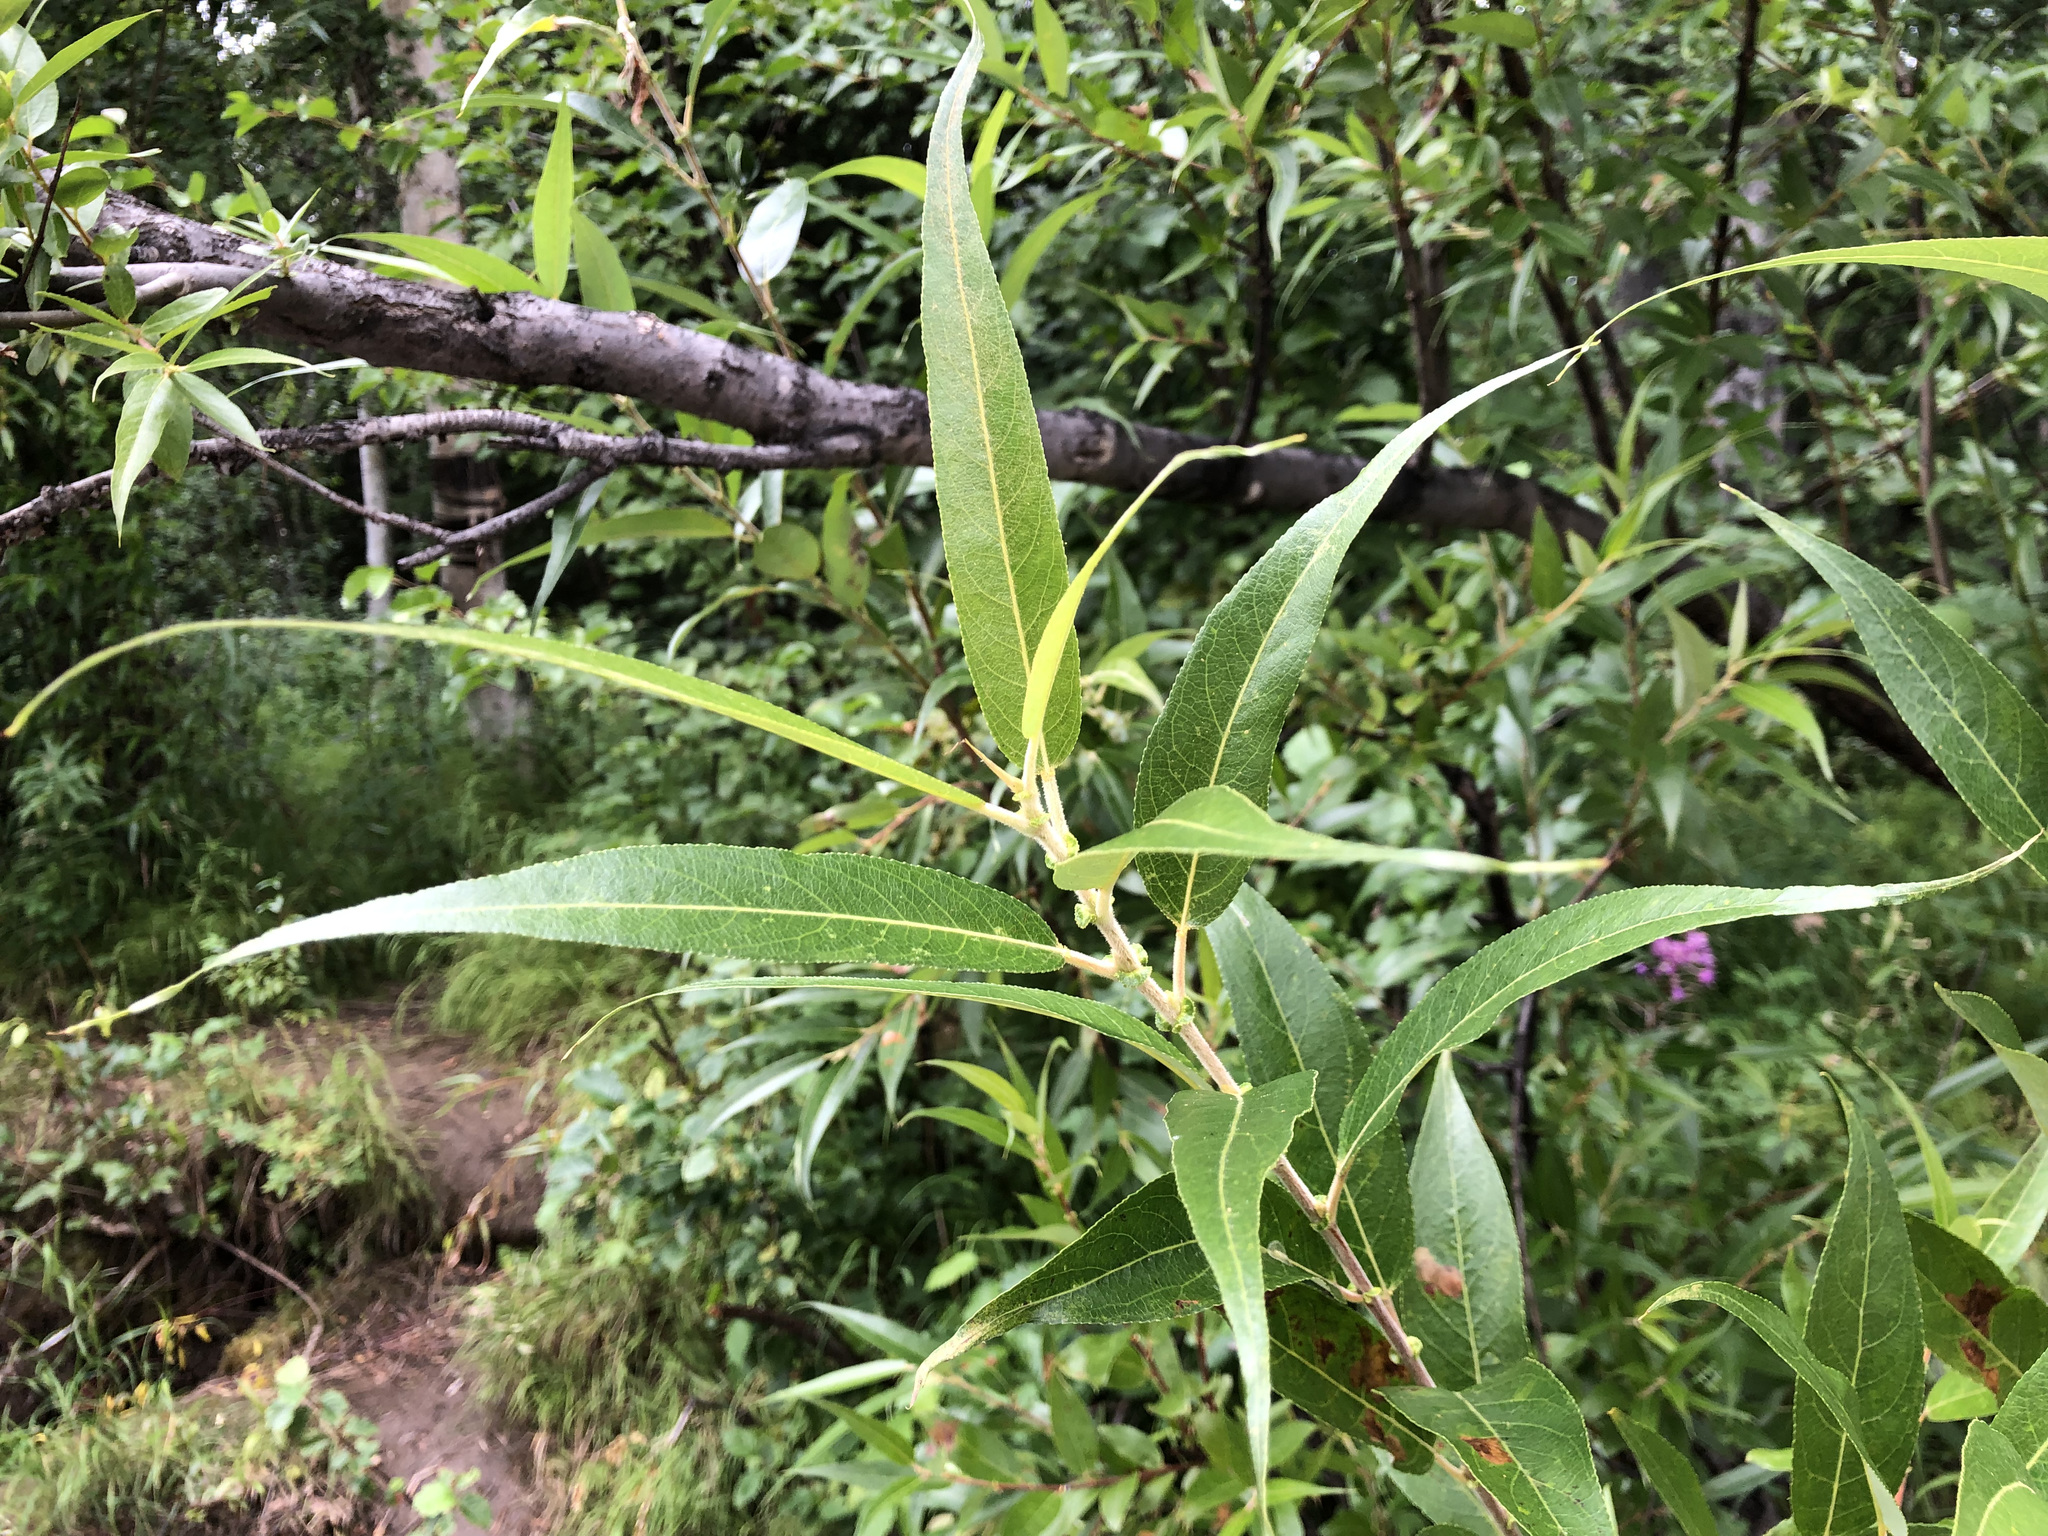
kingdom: Plantae
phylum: Tracheophyta
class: Magnoliopsida
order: Malpighiales
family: Salicaceae
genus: Salix
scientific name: Salix lucida
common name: Shining willow
